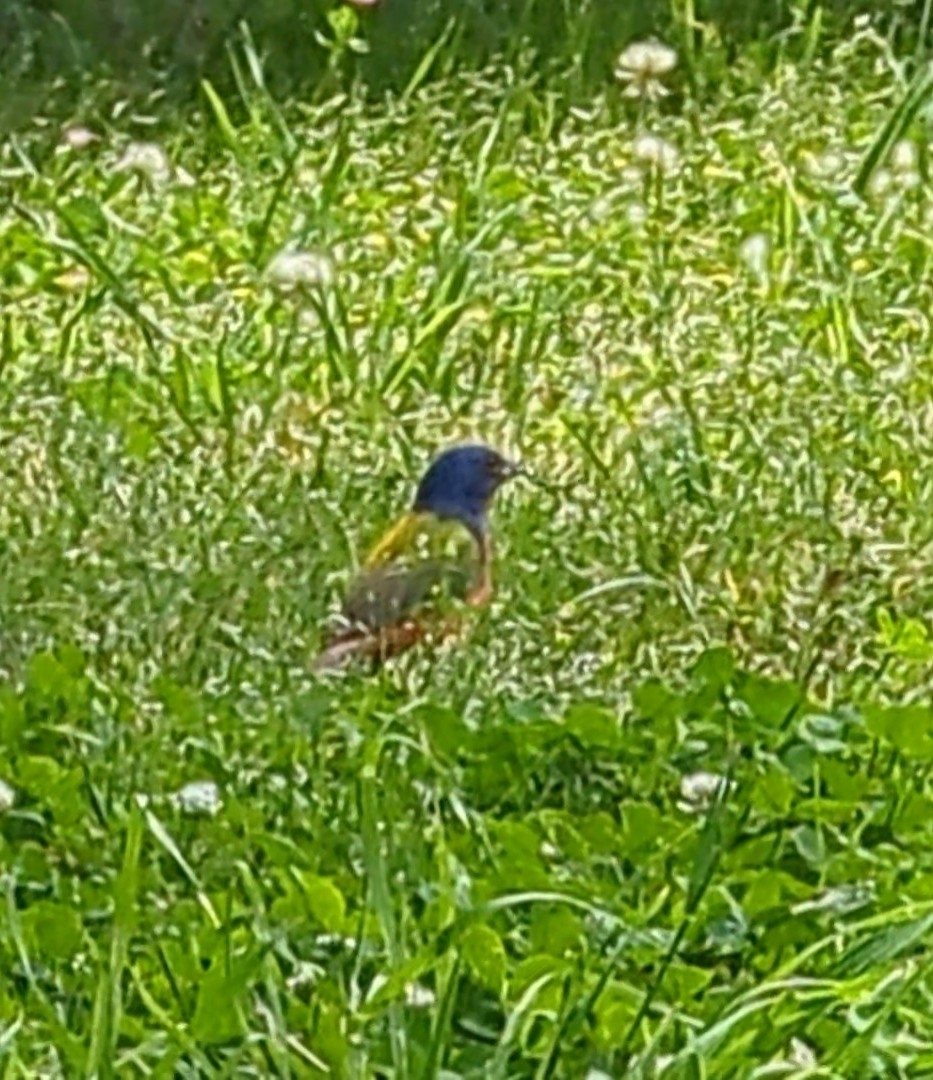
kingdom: Animalia
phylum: Chordata
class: Aves
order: Passeriformes
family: Cardinalidae
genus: Passerina
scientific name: Passerina ciris
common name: Painted bunting
